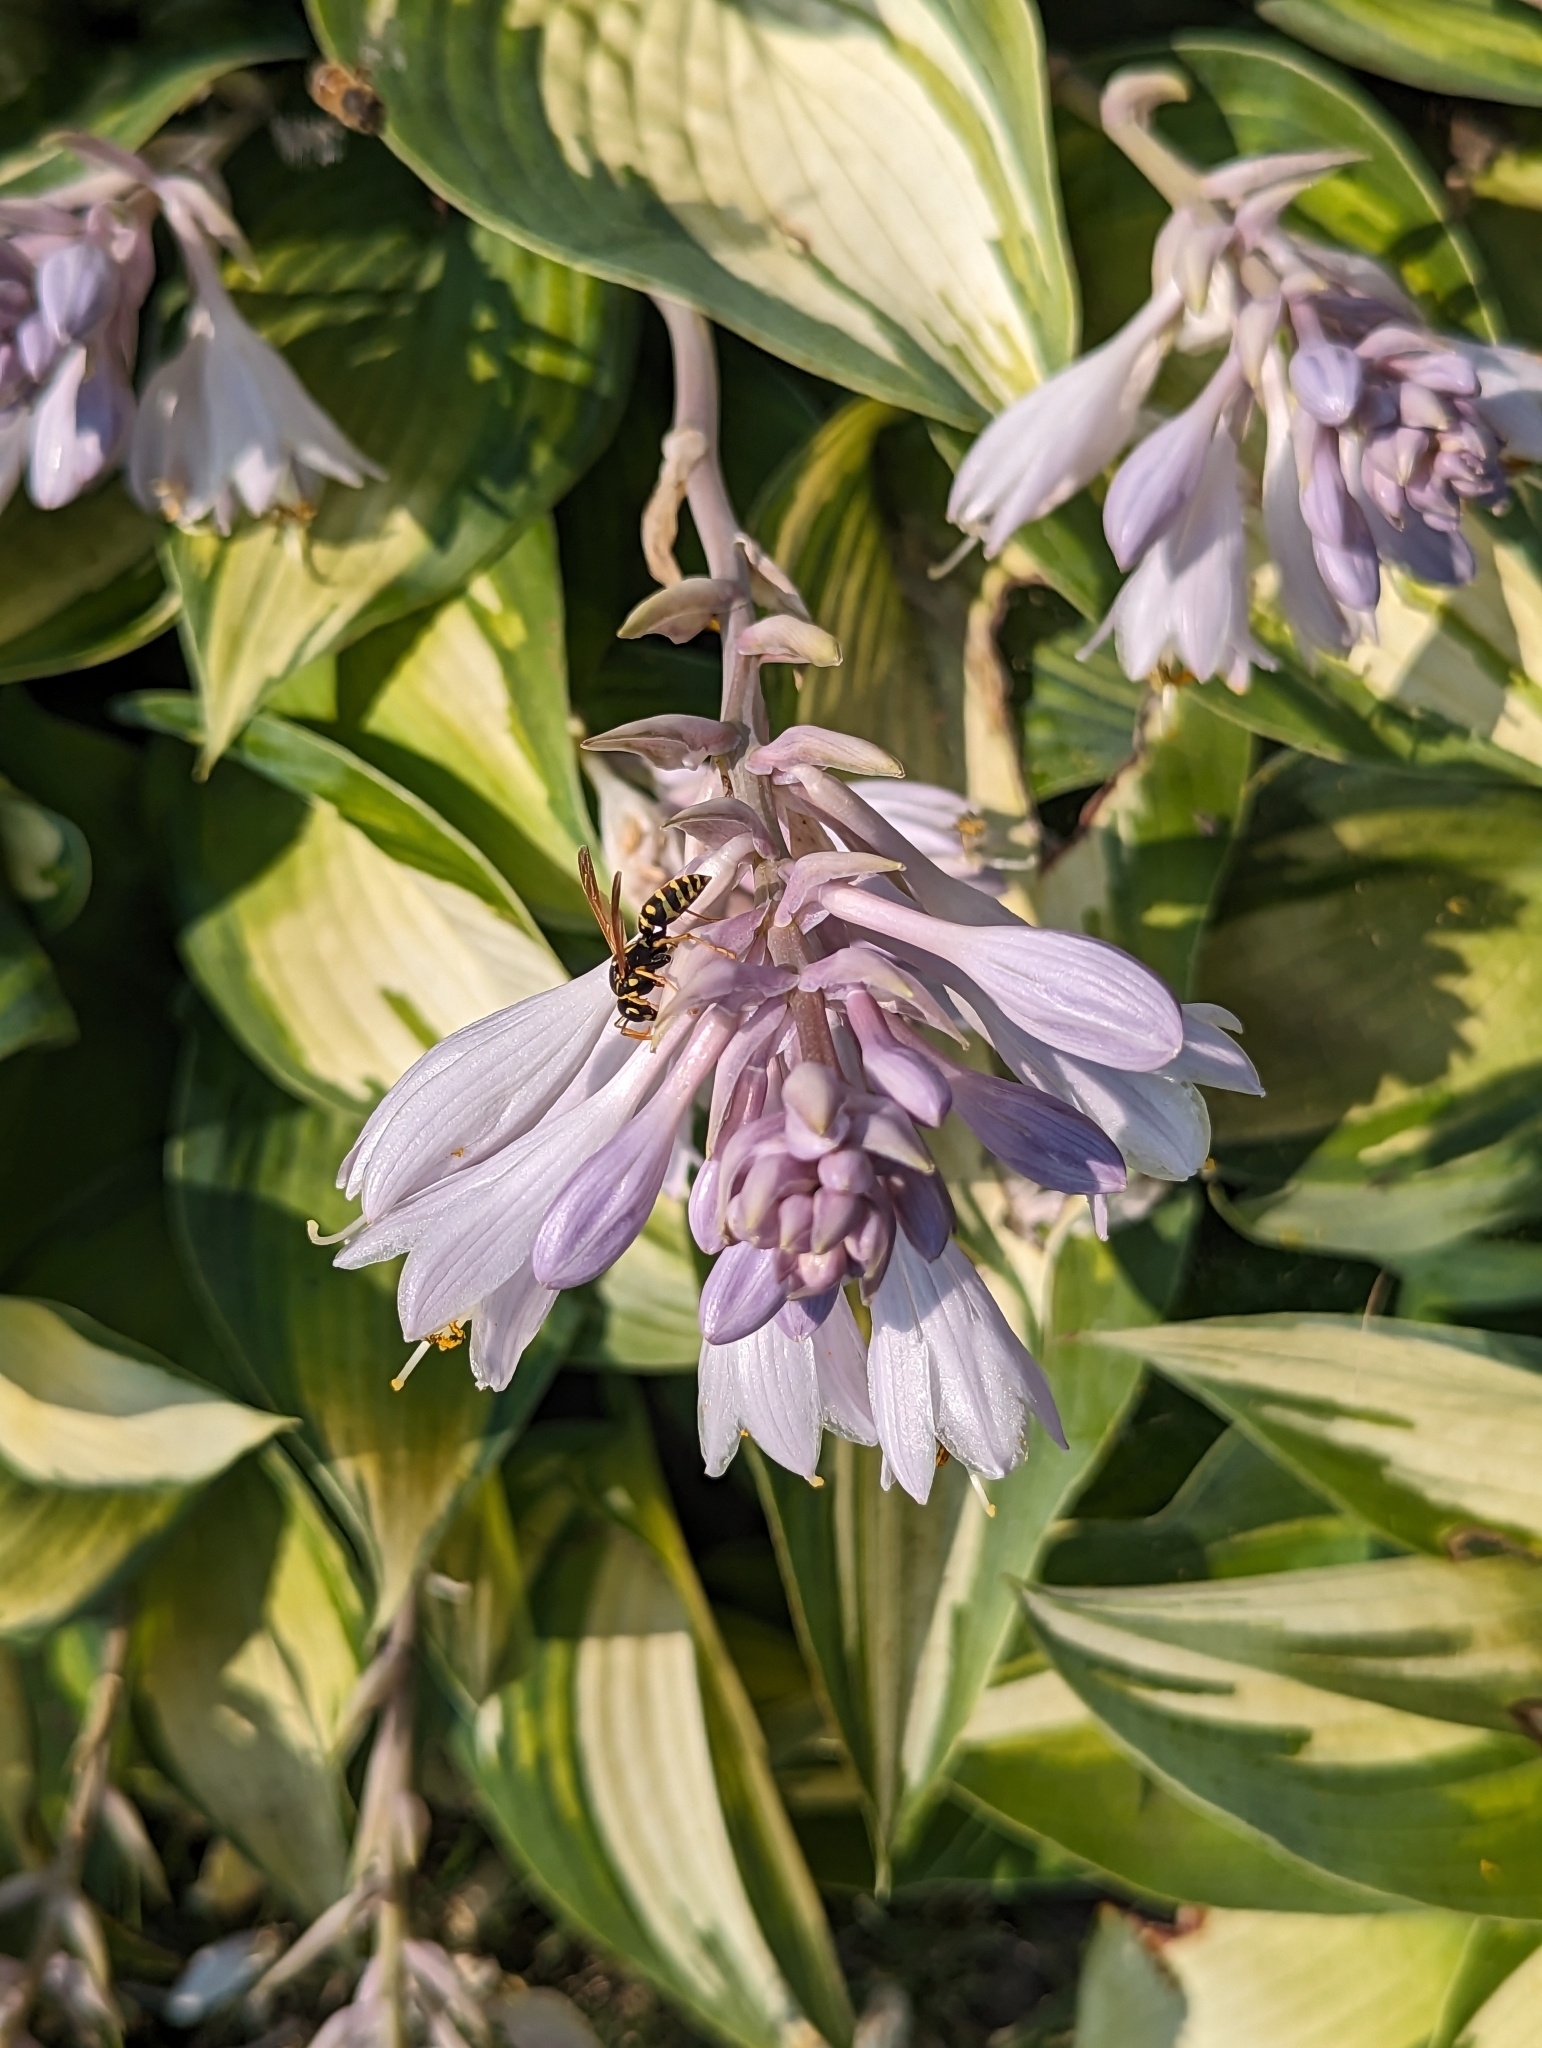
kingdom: Animalia
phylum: Arthropoda
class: Insecta
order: Hymenoptera
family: Eumenidae
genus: Polistes
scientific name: Polistes dominula
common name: Paper wasp
